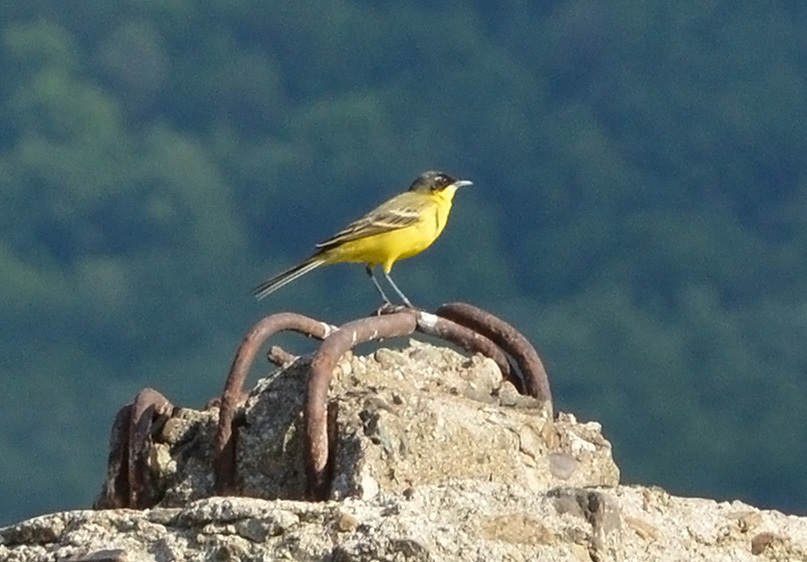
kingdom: Animalia
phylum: Chordata
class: Aves
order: Passeriformes
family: Motacillidae
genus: Motacilla
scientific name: Motacilla flava
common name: Western yellow wagtail
